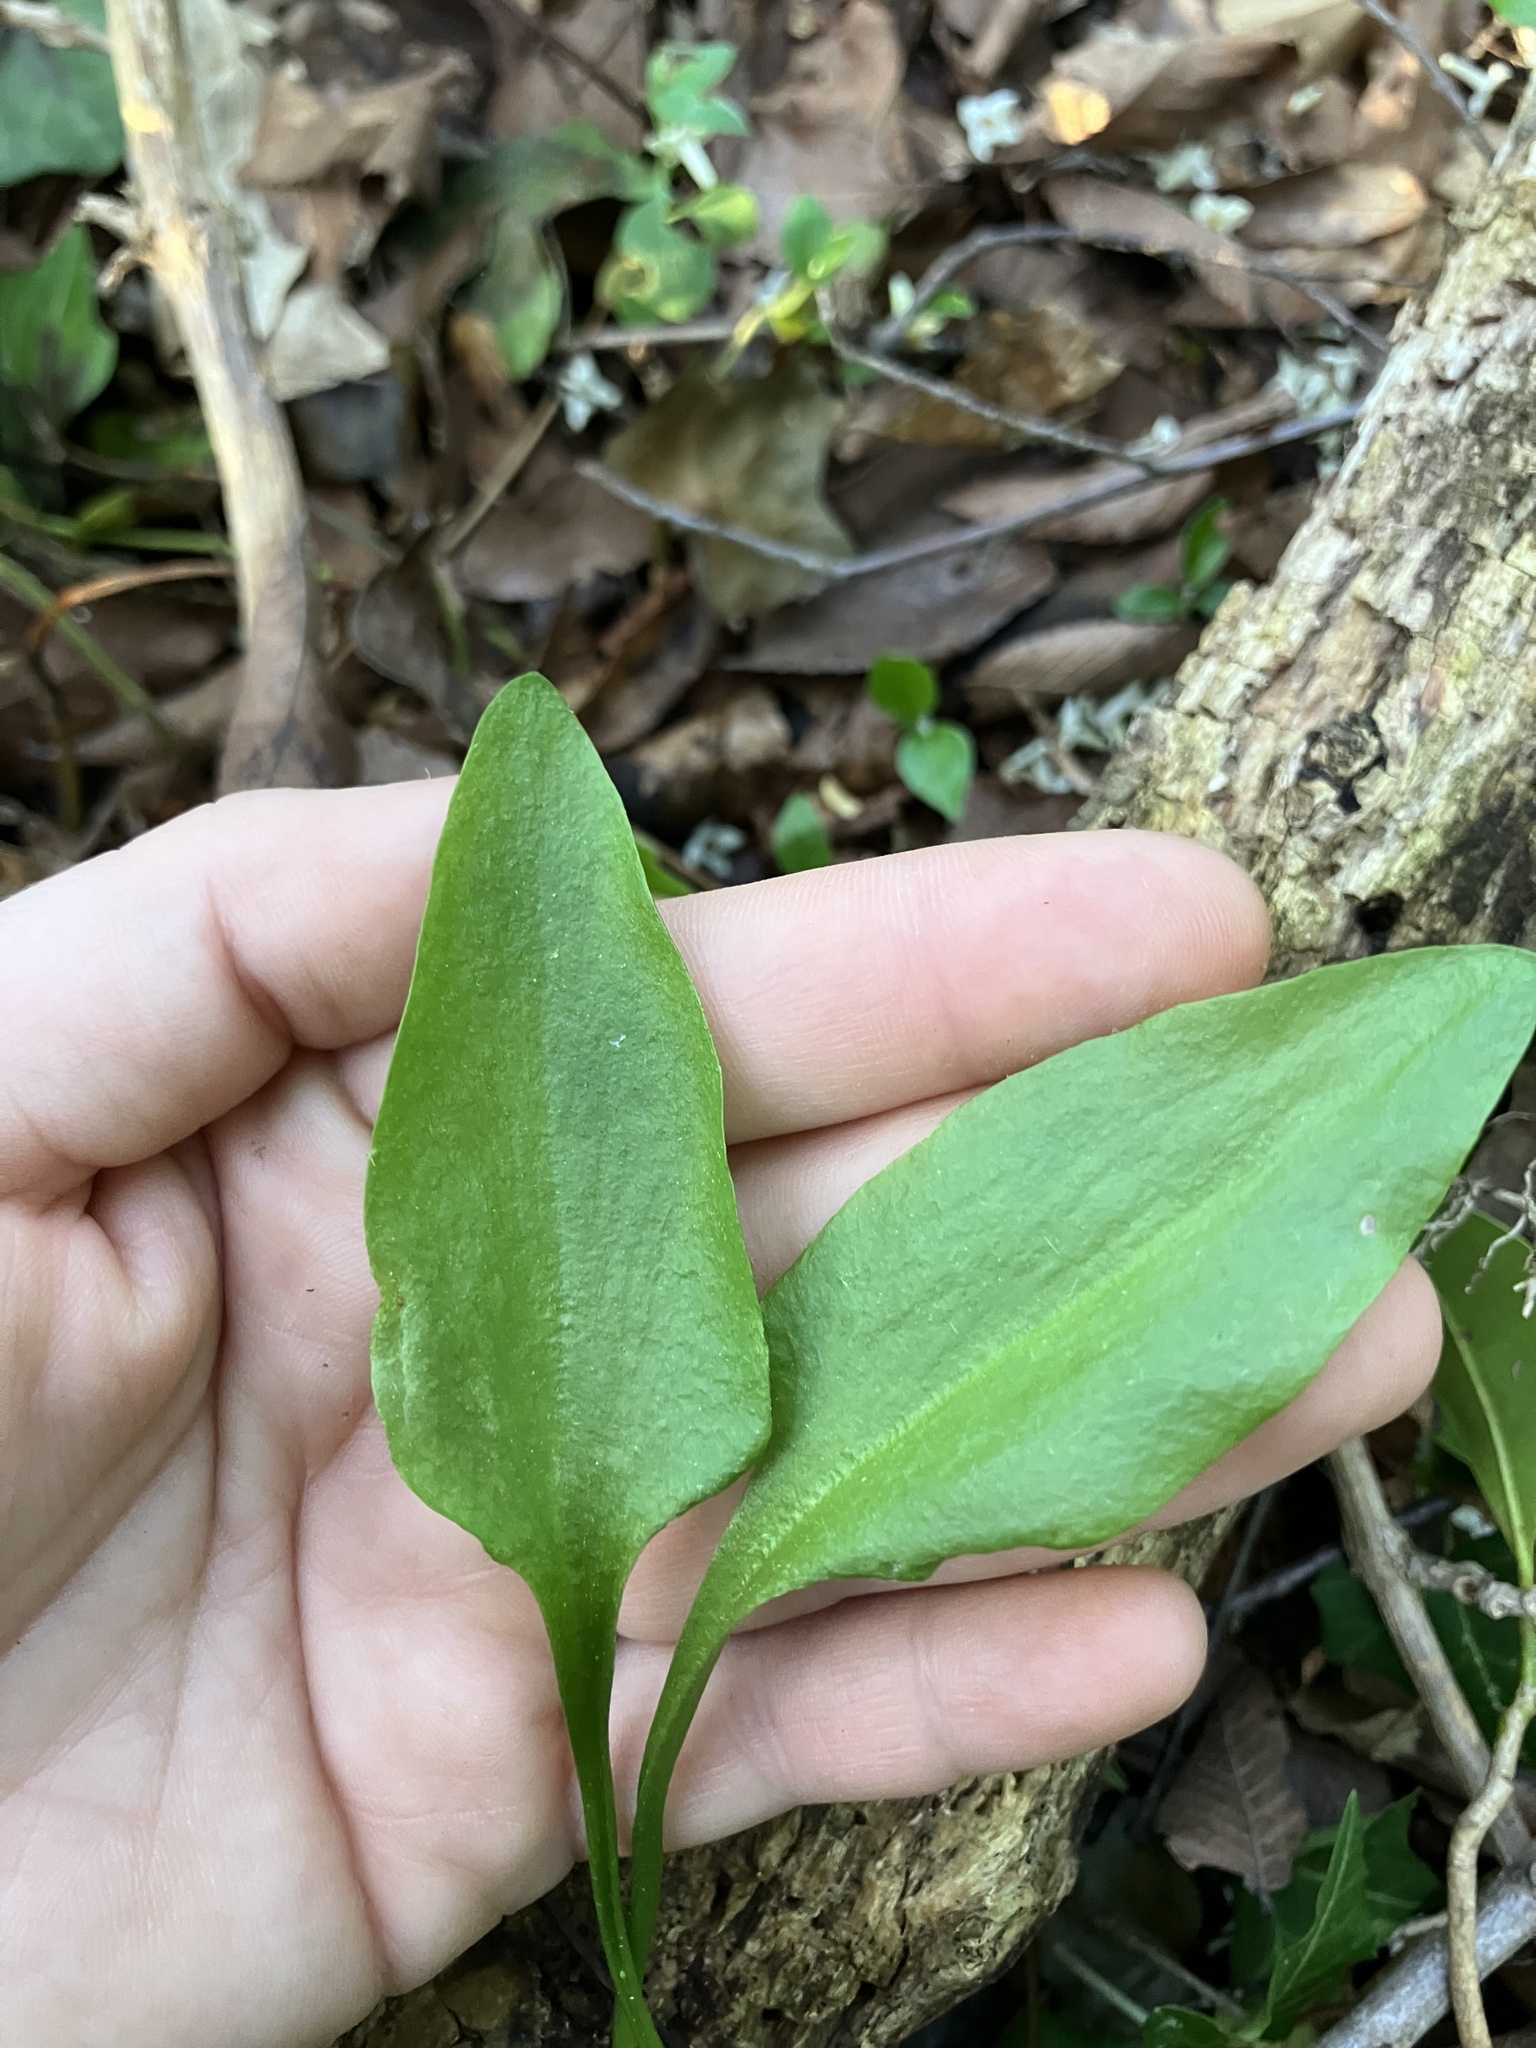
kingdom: Plantae
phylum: Tracheophyta
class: Polypodiopsida
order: Ophioglossales
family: Ophioglossaceae
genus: Ophioglossum
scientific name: Ophioglossum vulgatum
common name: Adder's-tongue
